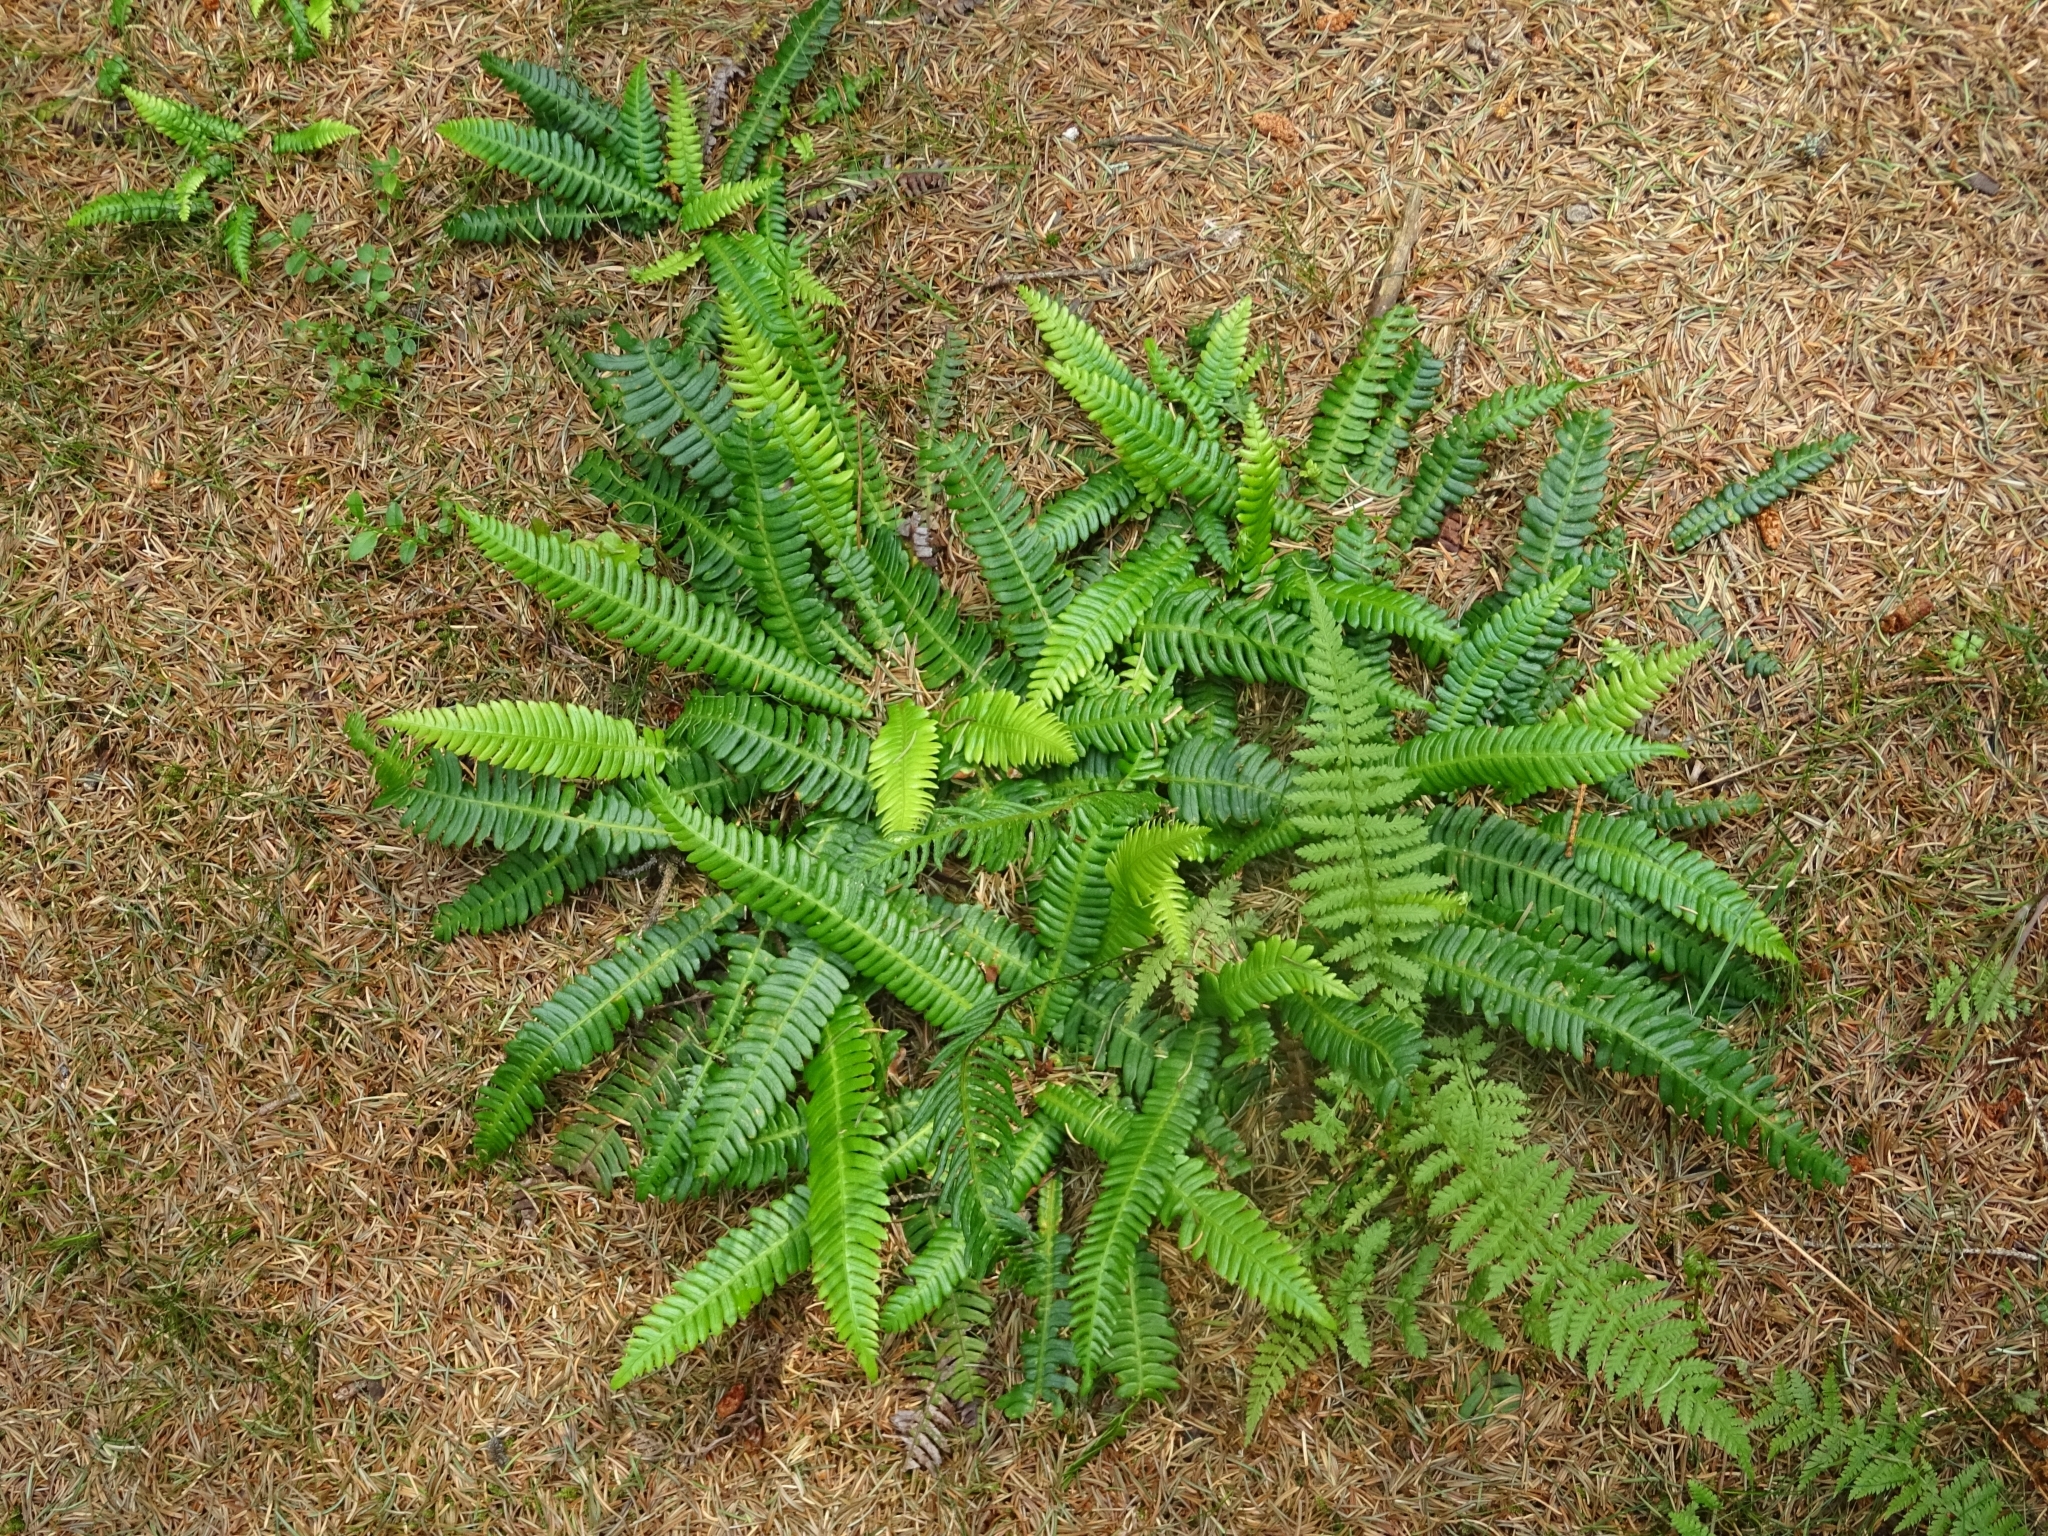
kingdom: Plantae
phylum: Tracheophyta
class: Polypodiopsida
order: Polypodiales
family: Blechnaceae
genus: Struthiopteris
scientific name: Struthiopteris spicant
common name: Deer fern
